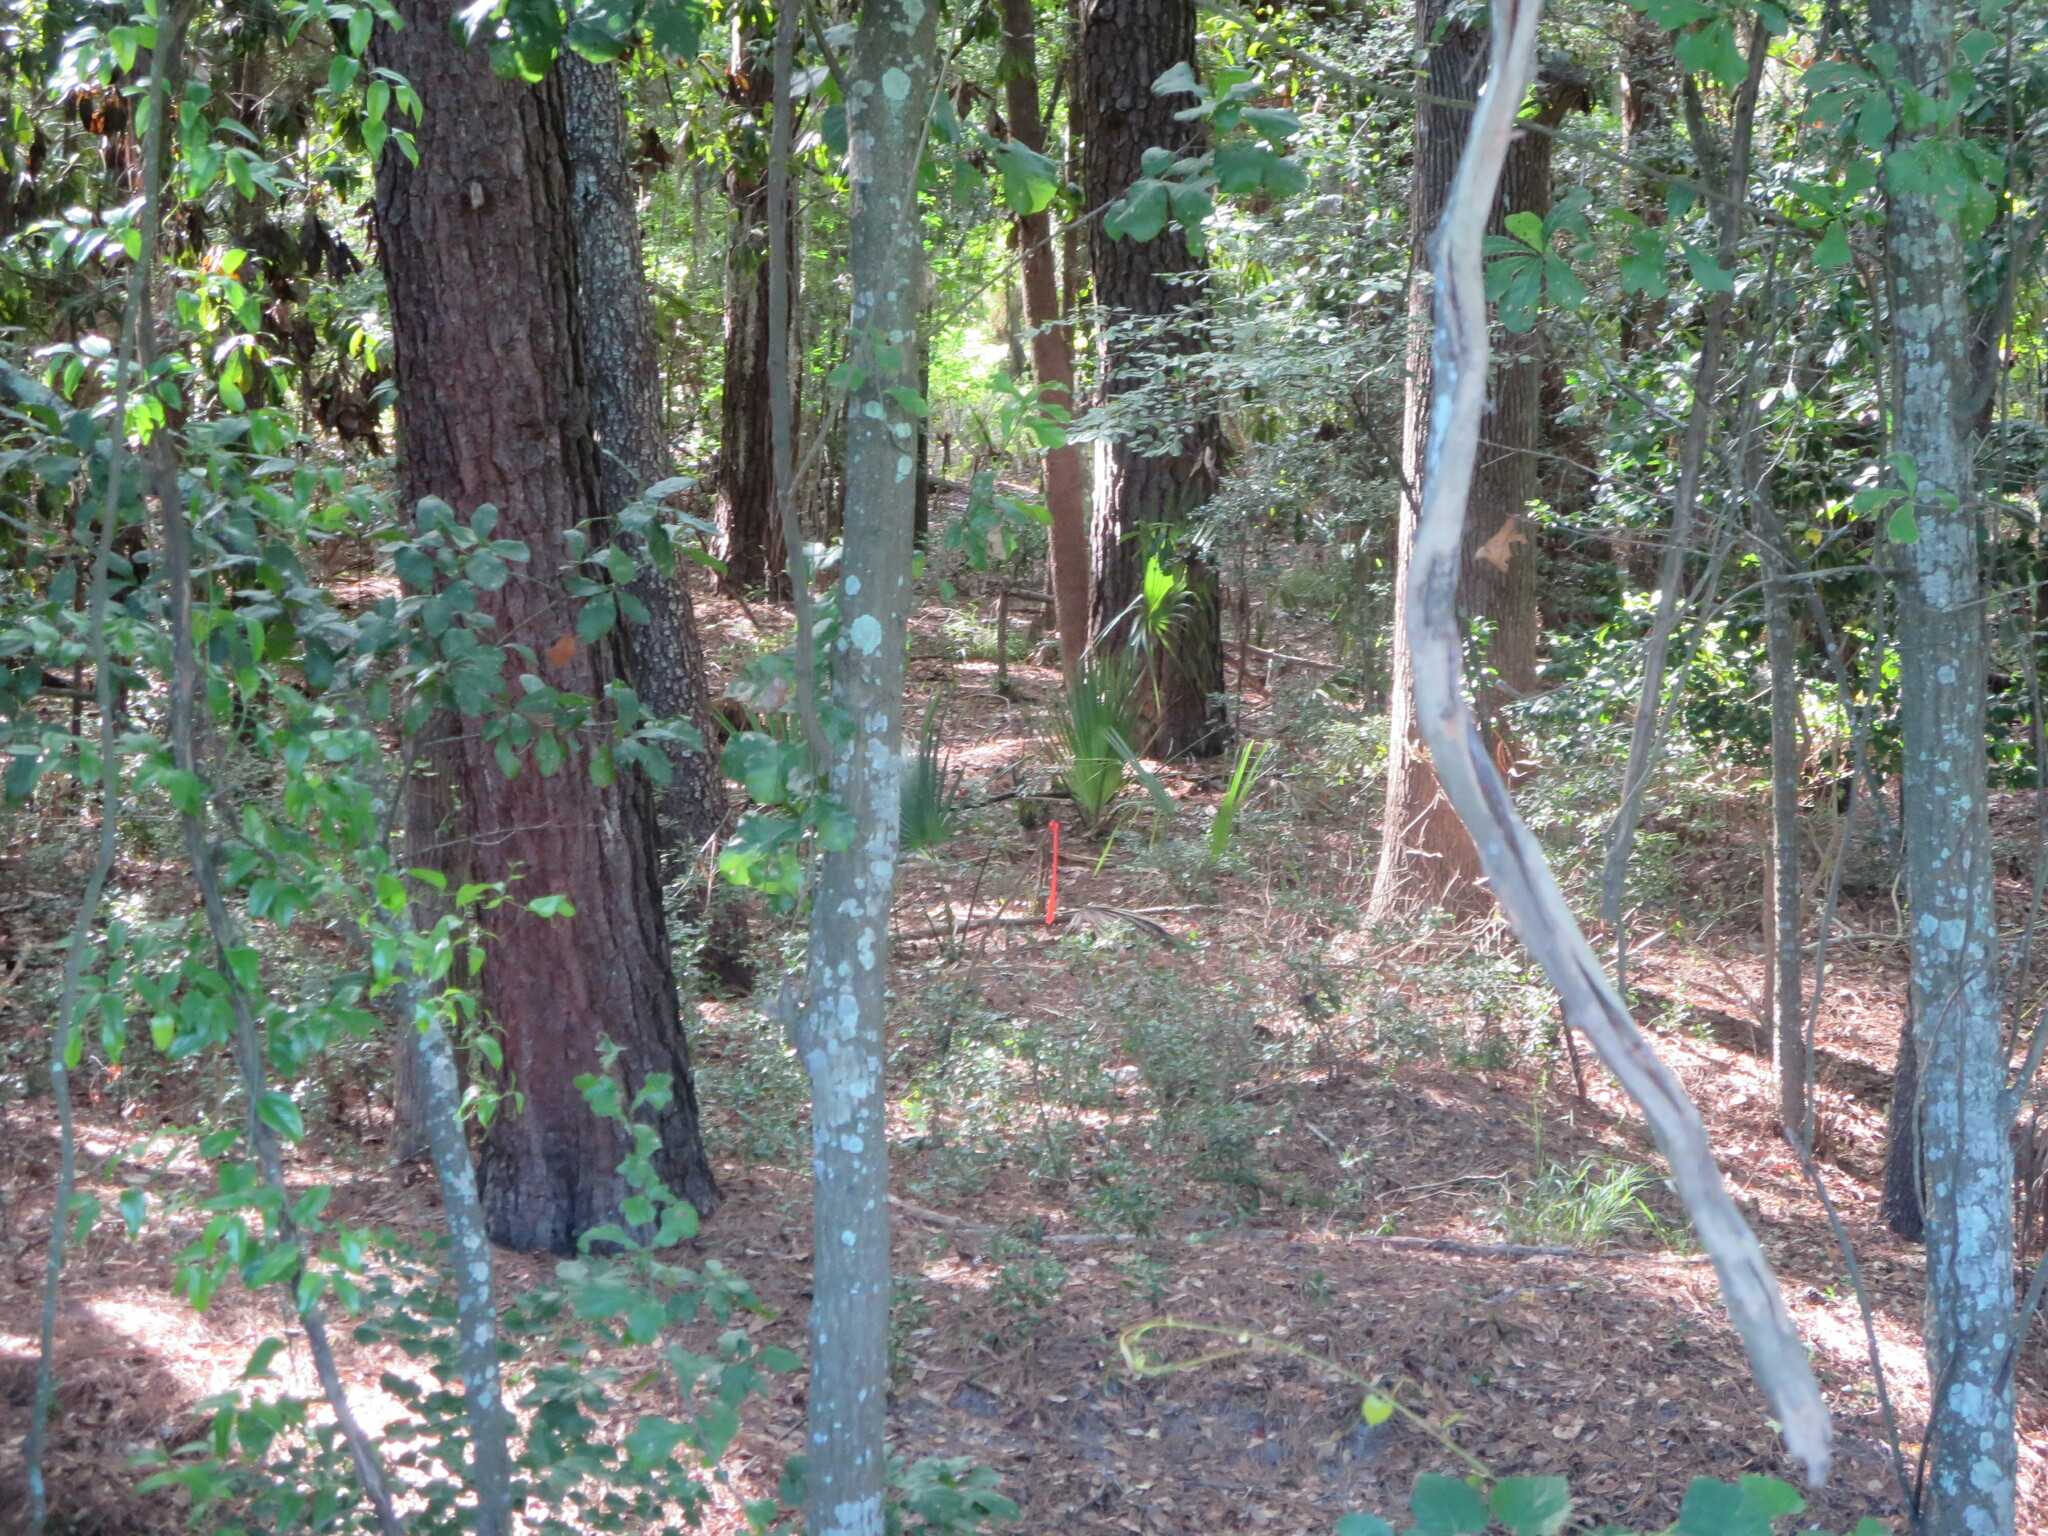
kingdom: Plantae
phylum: Tracheophyta
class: Magnoliopsida
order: Fagales
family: Fagaceae
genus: Quercus
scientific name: Quercus nigra
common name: Water oak
